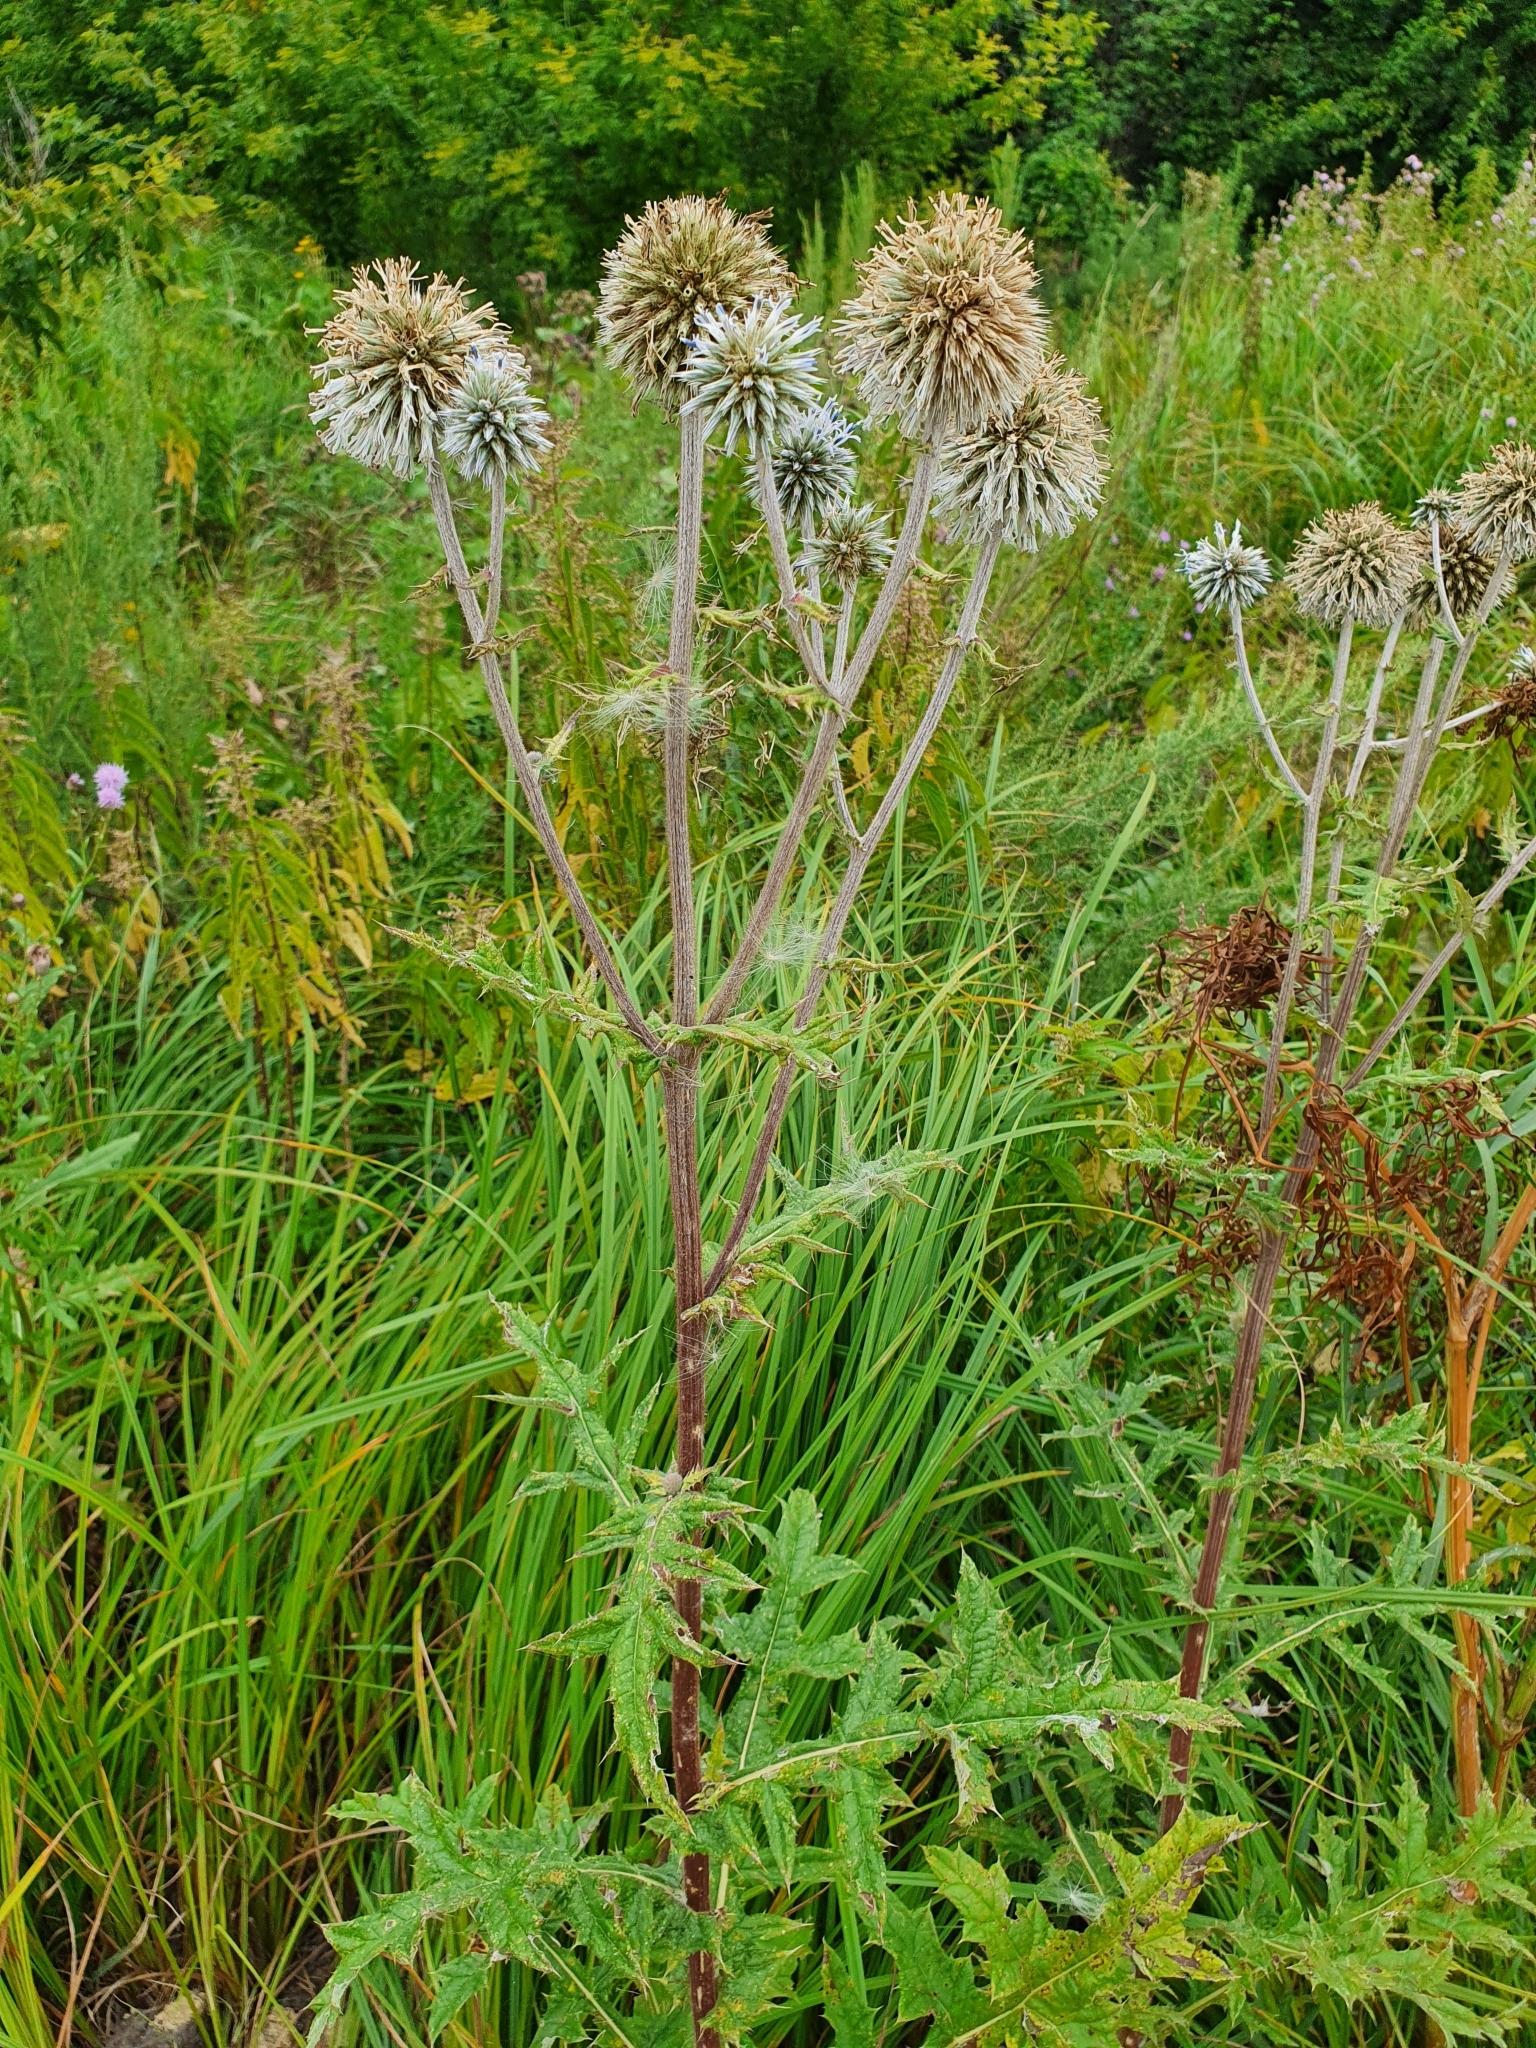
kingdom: Plantae
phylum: Tracheophyta
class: Magnoliopsida
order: Asterales
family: Asteraceae
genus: Echinops
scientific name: Echinops sphaerocephalus
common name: Glandular globe-thistle
